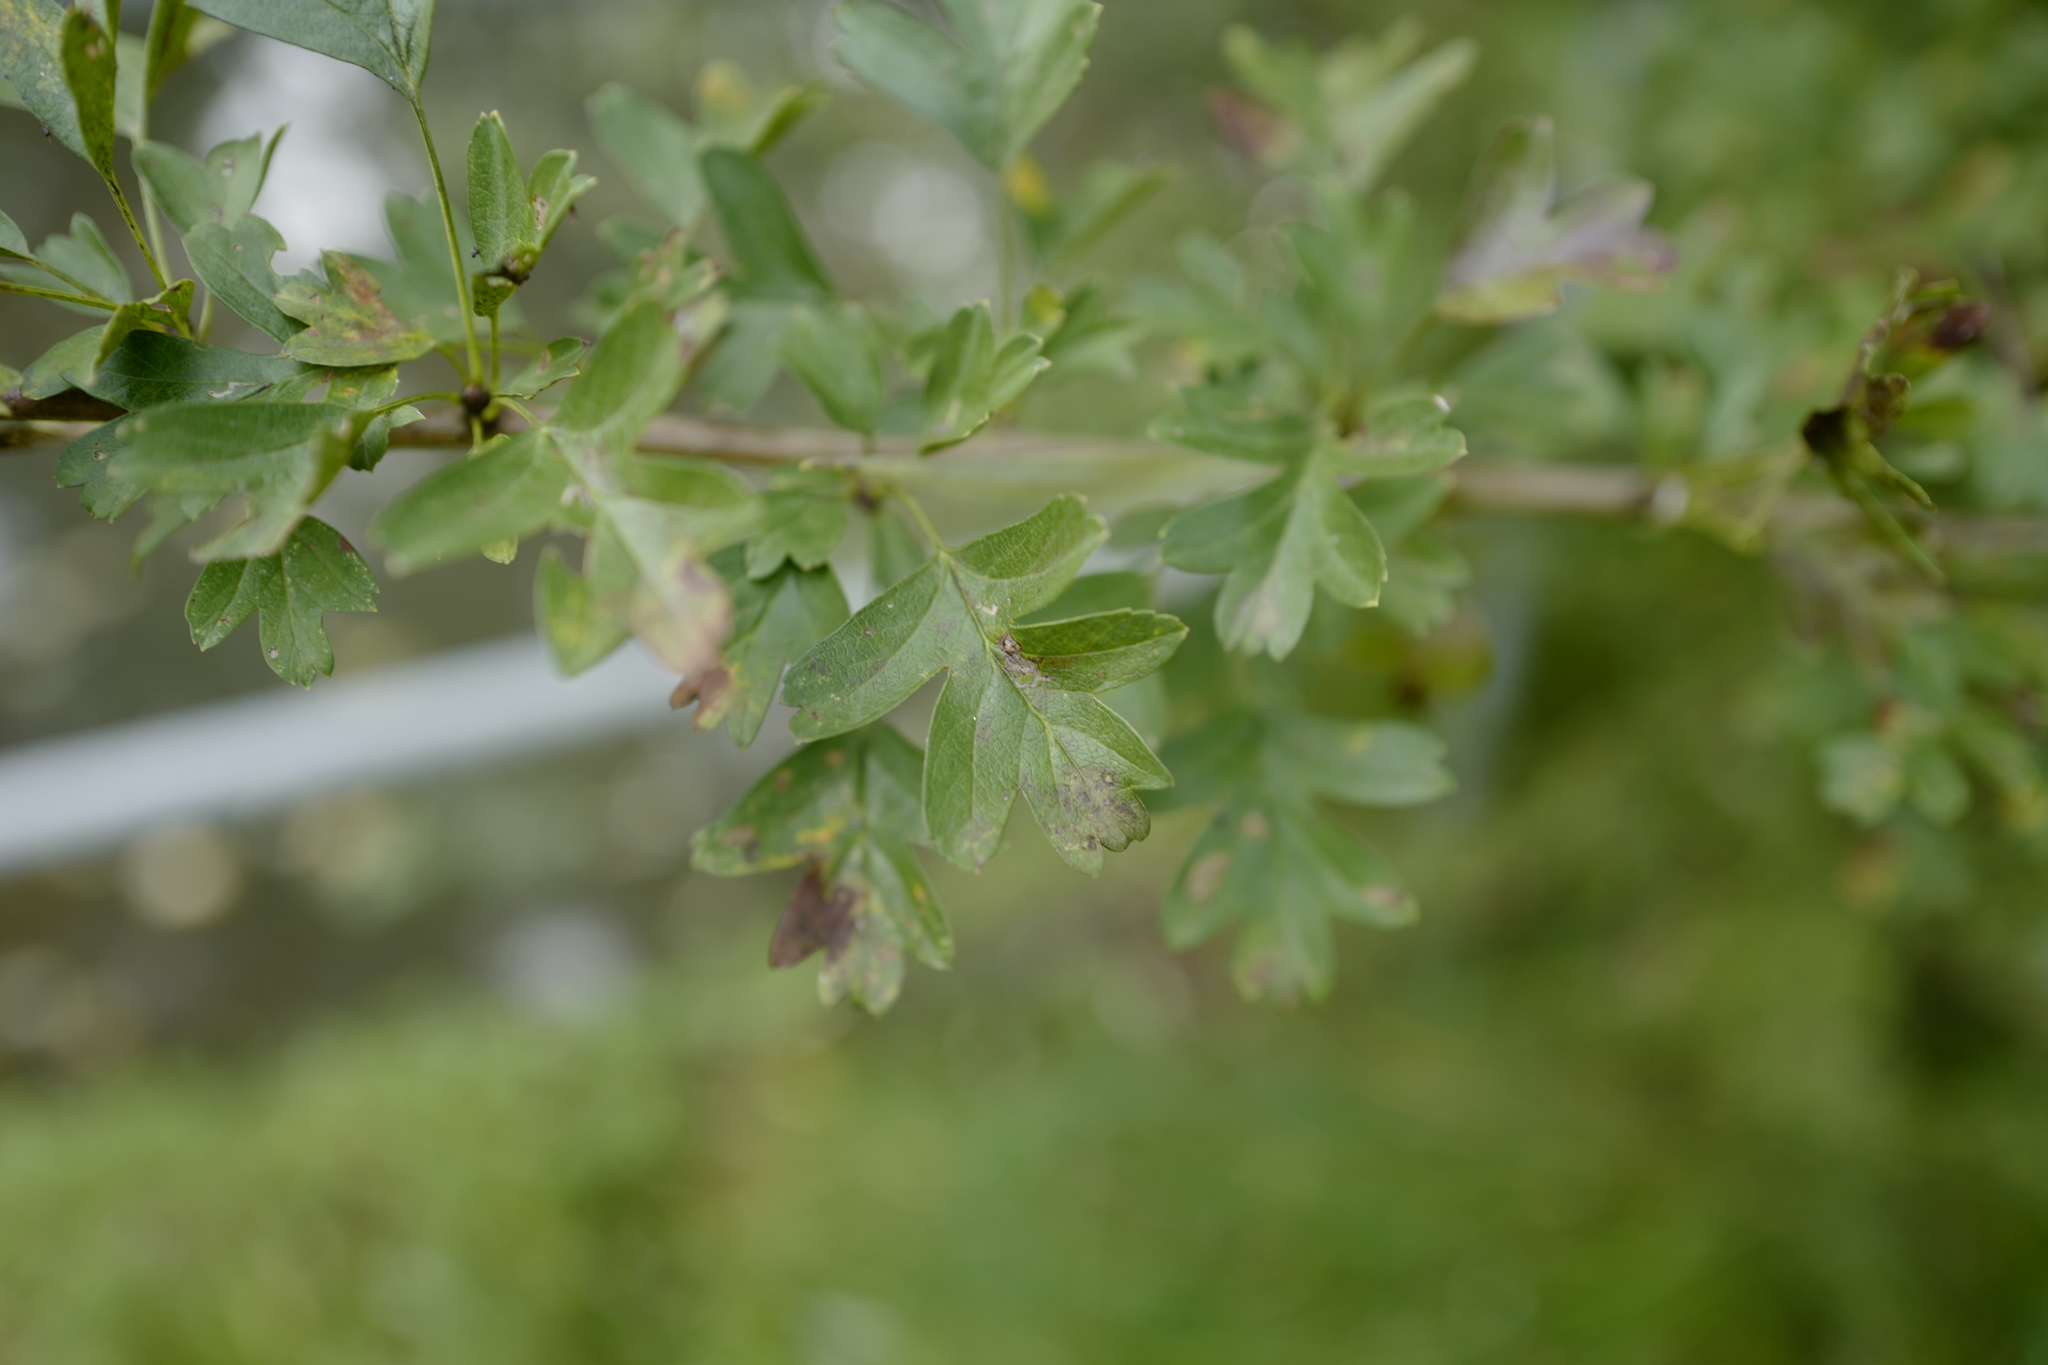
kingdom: Plantae
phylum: Tracheophyta
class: Magnoliopsida
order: Rosales
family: Rosaceae
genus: Crataegus
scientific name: Crataegus monogyna
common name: Hawthorn
